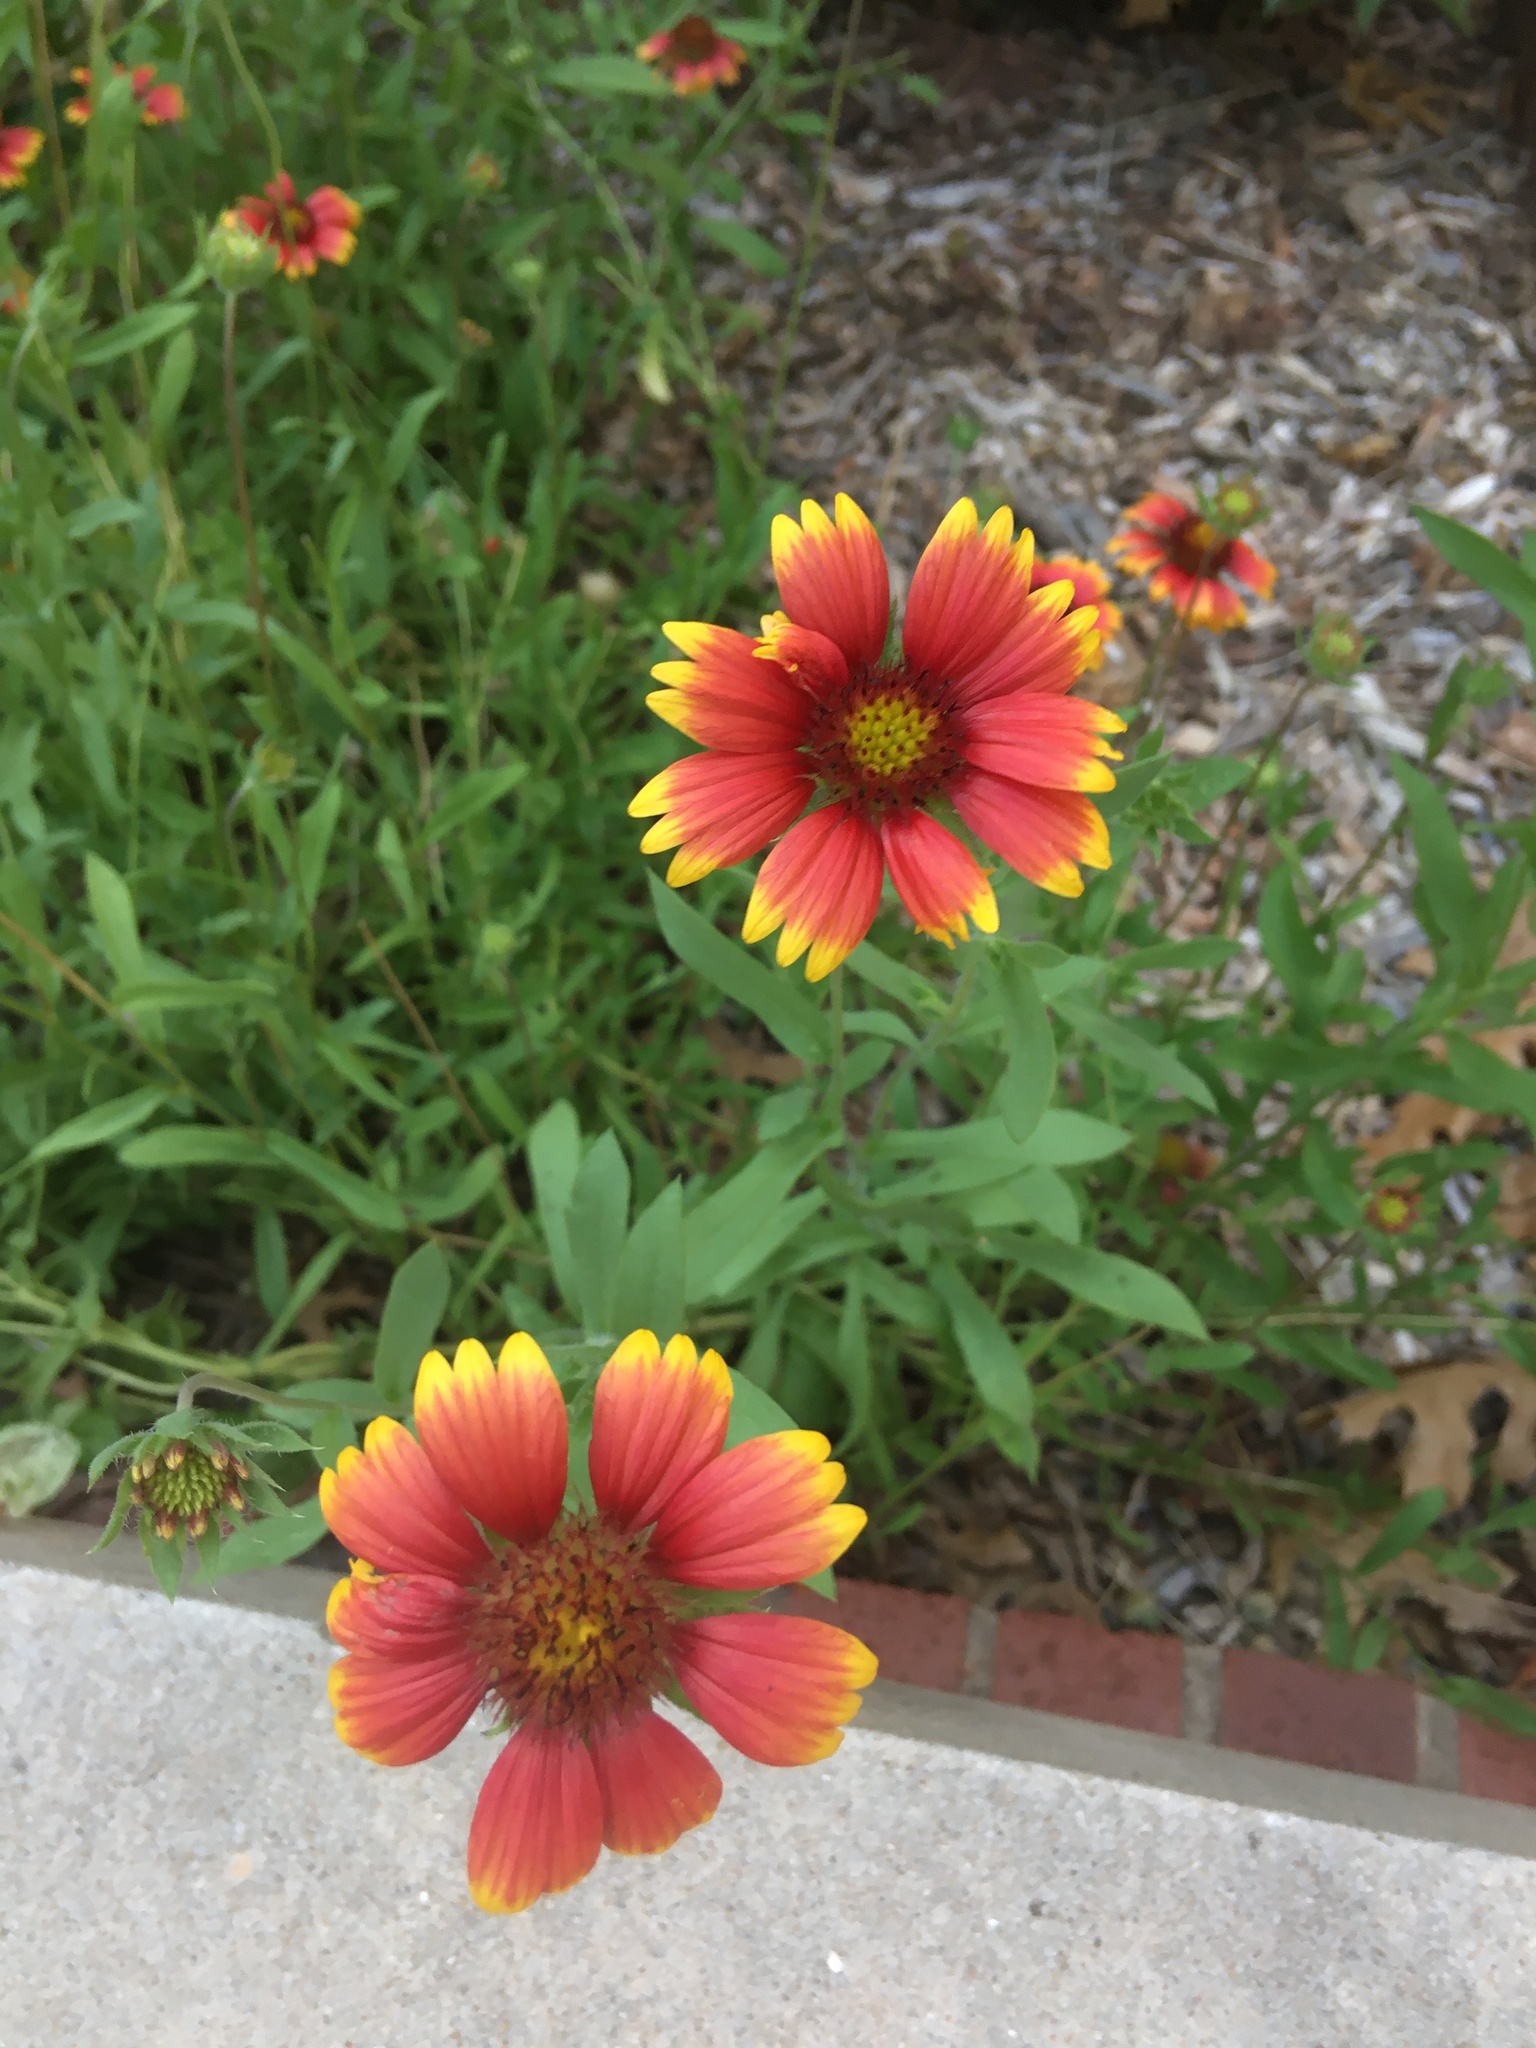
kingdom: Plantae
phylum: Tracheophyta
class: Magnoliopsida
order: Asterales
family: Asteraceae
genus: Gaillardia
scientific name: Gaillardia pulchella
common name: Firewheel
